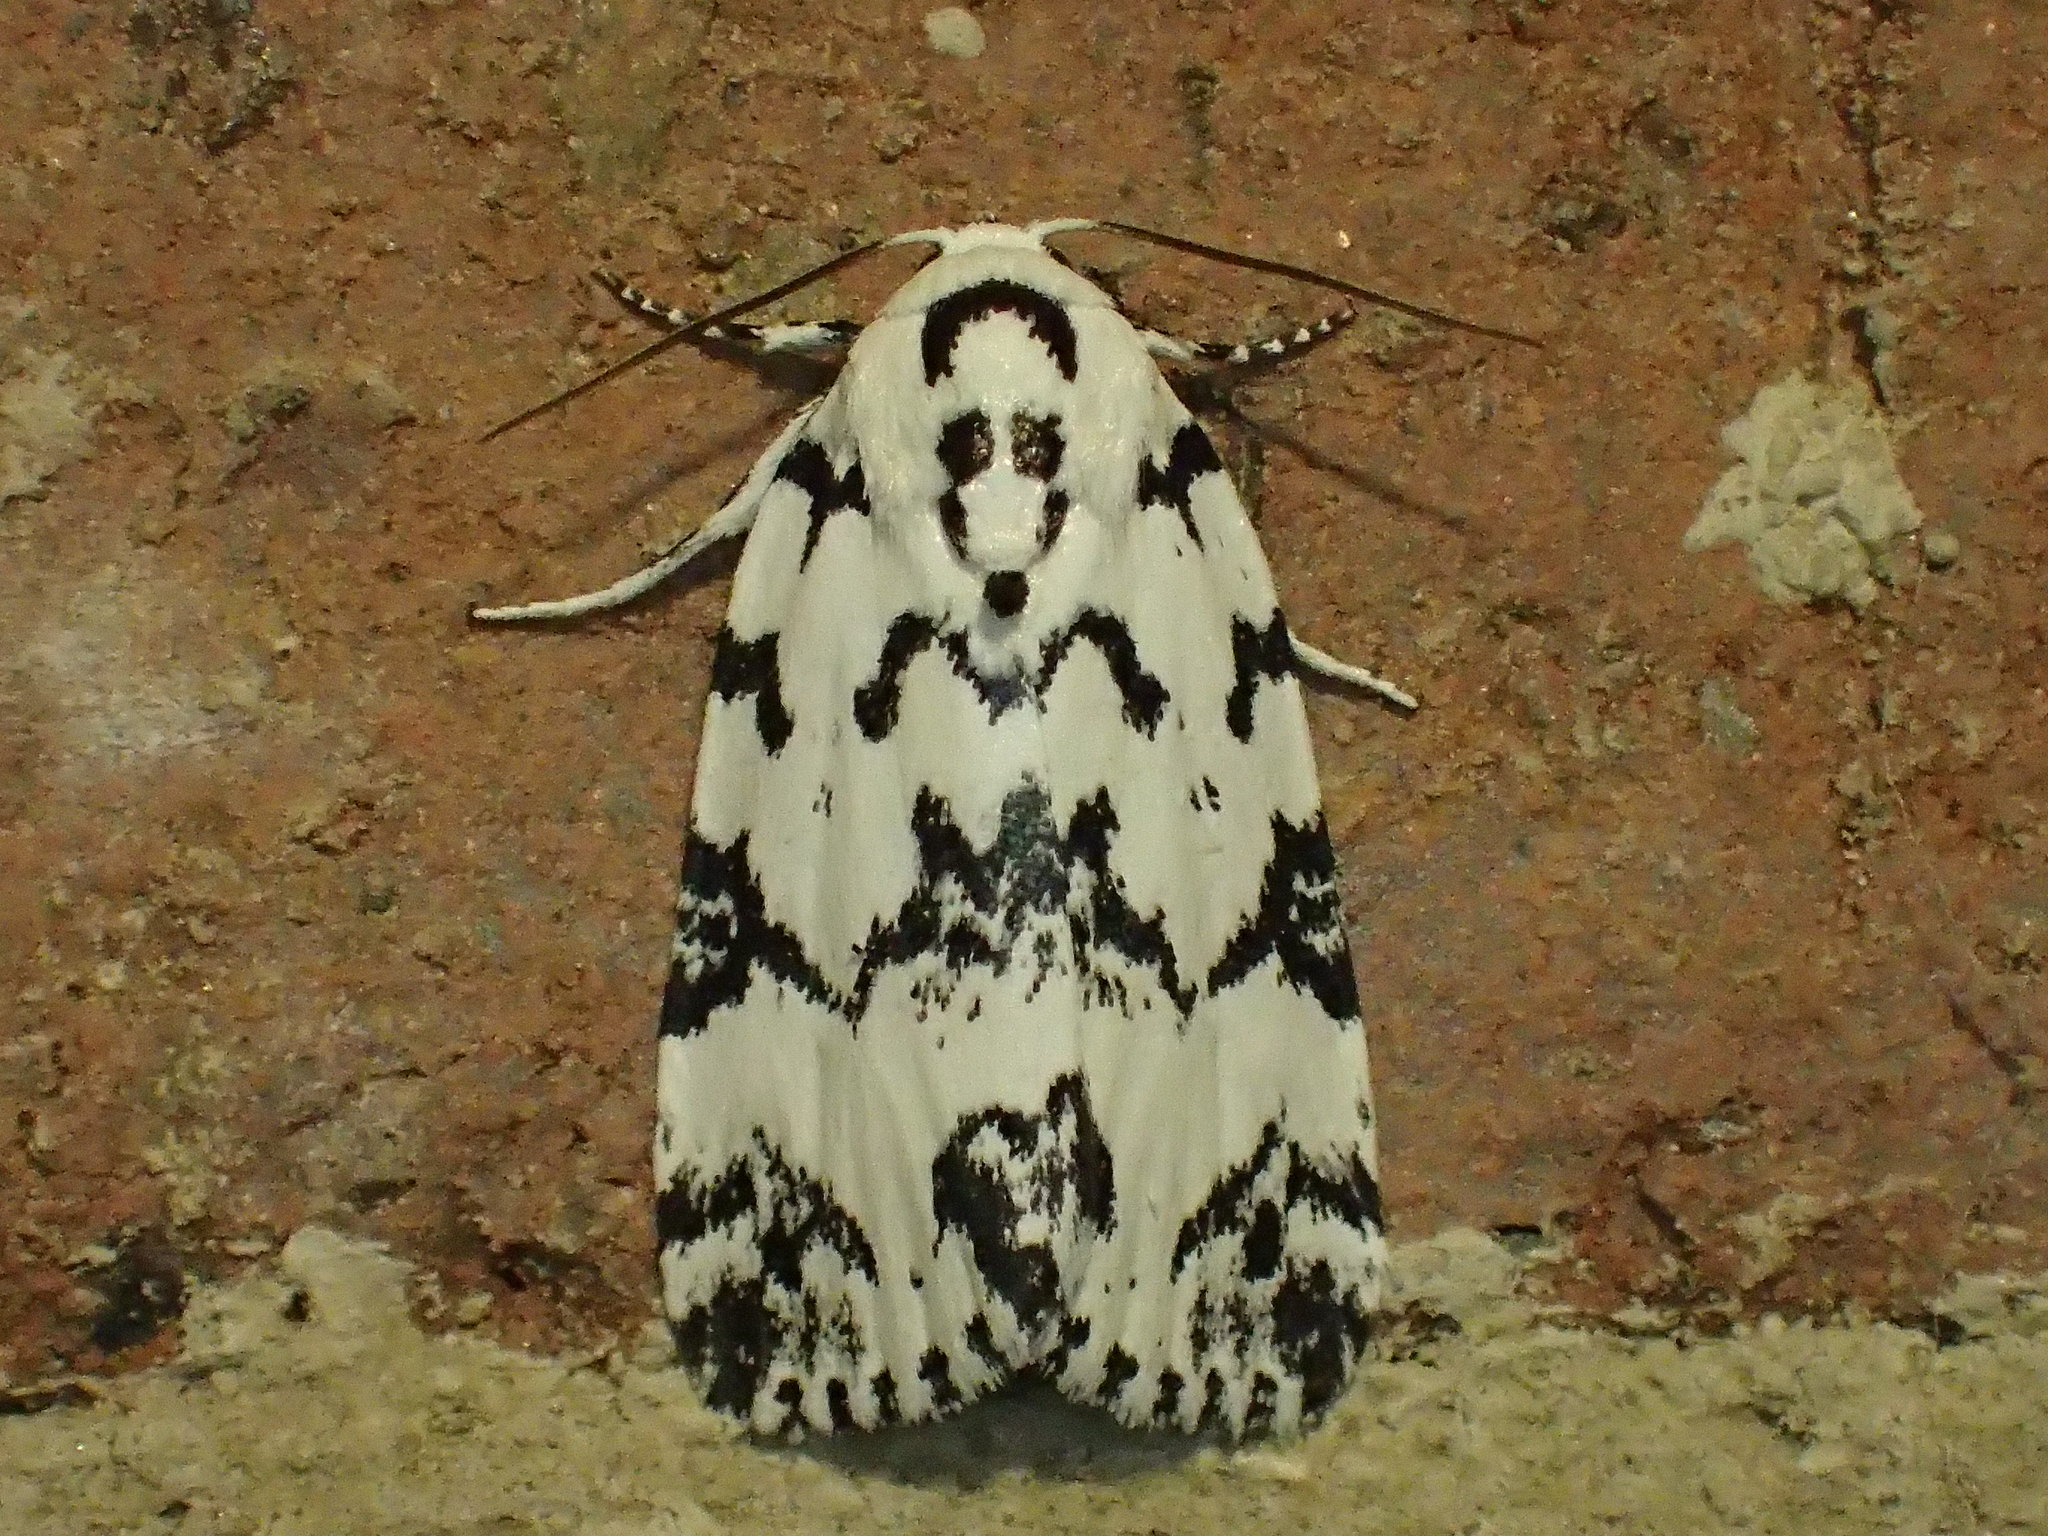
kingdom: Animalia
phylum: Arthropoda
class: Insecta
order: Lepidoptera
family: Noctuidae
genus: Polygrammate
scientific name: Polygrammate hebraeicum
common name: Hebrew moth
